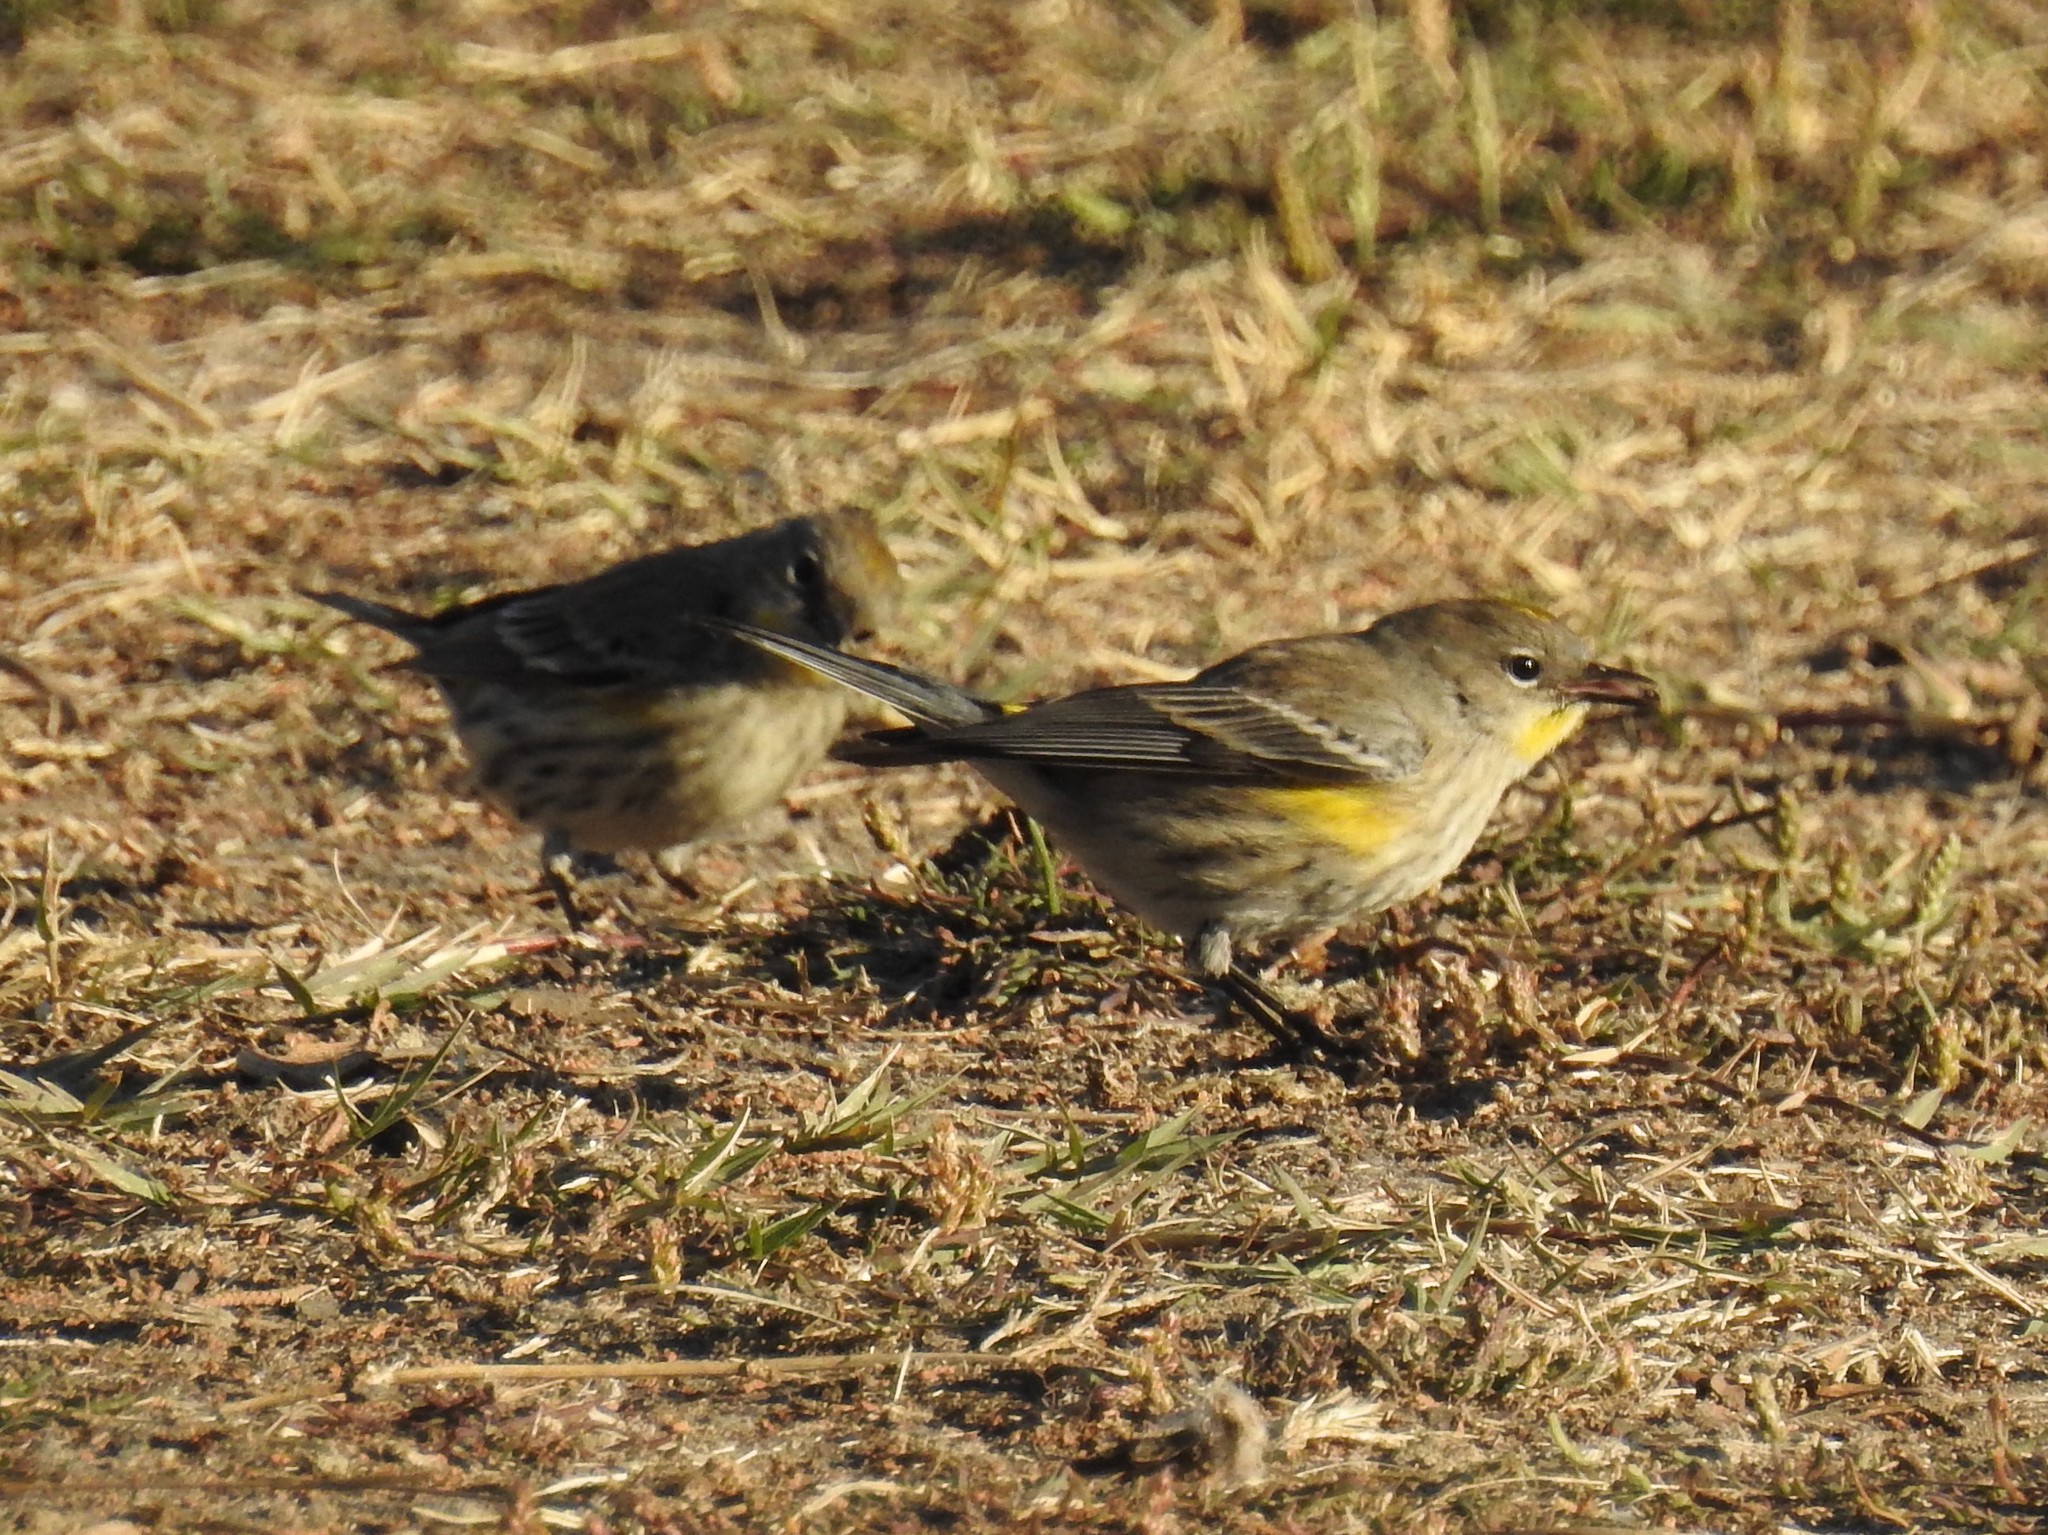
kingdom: Animalia
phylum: Chordata
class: Aves
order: Passeriformes
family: Parulidae
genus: Setophaga
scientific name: Setophaga coronata
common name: Myrtle warbler
